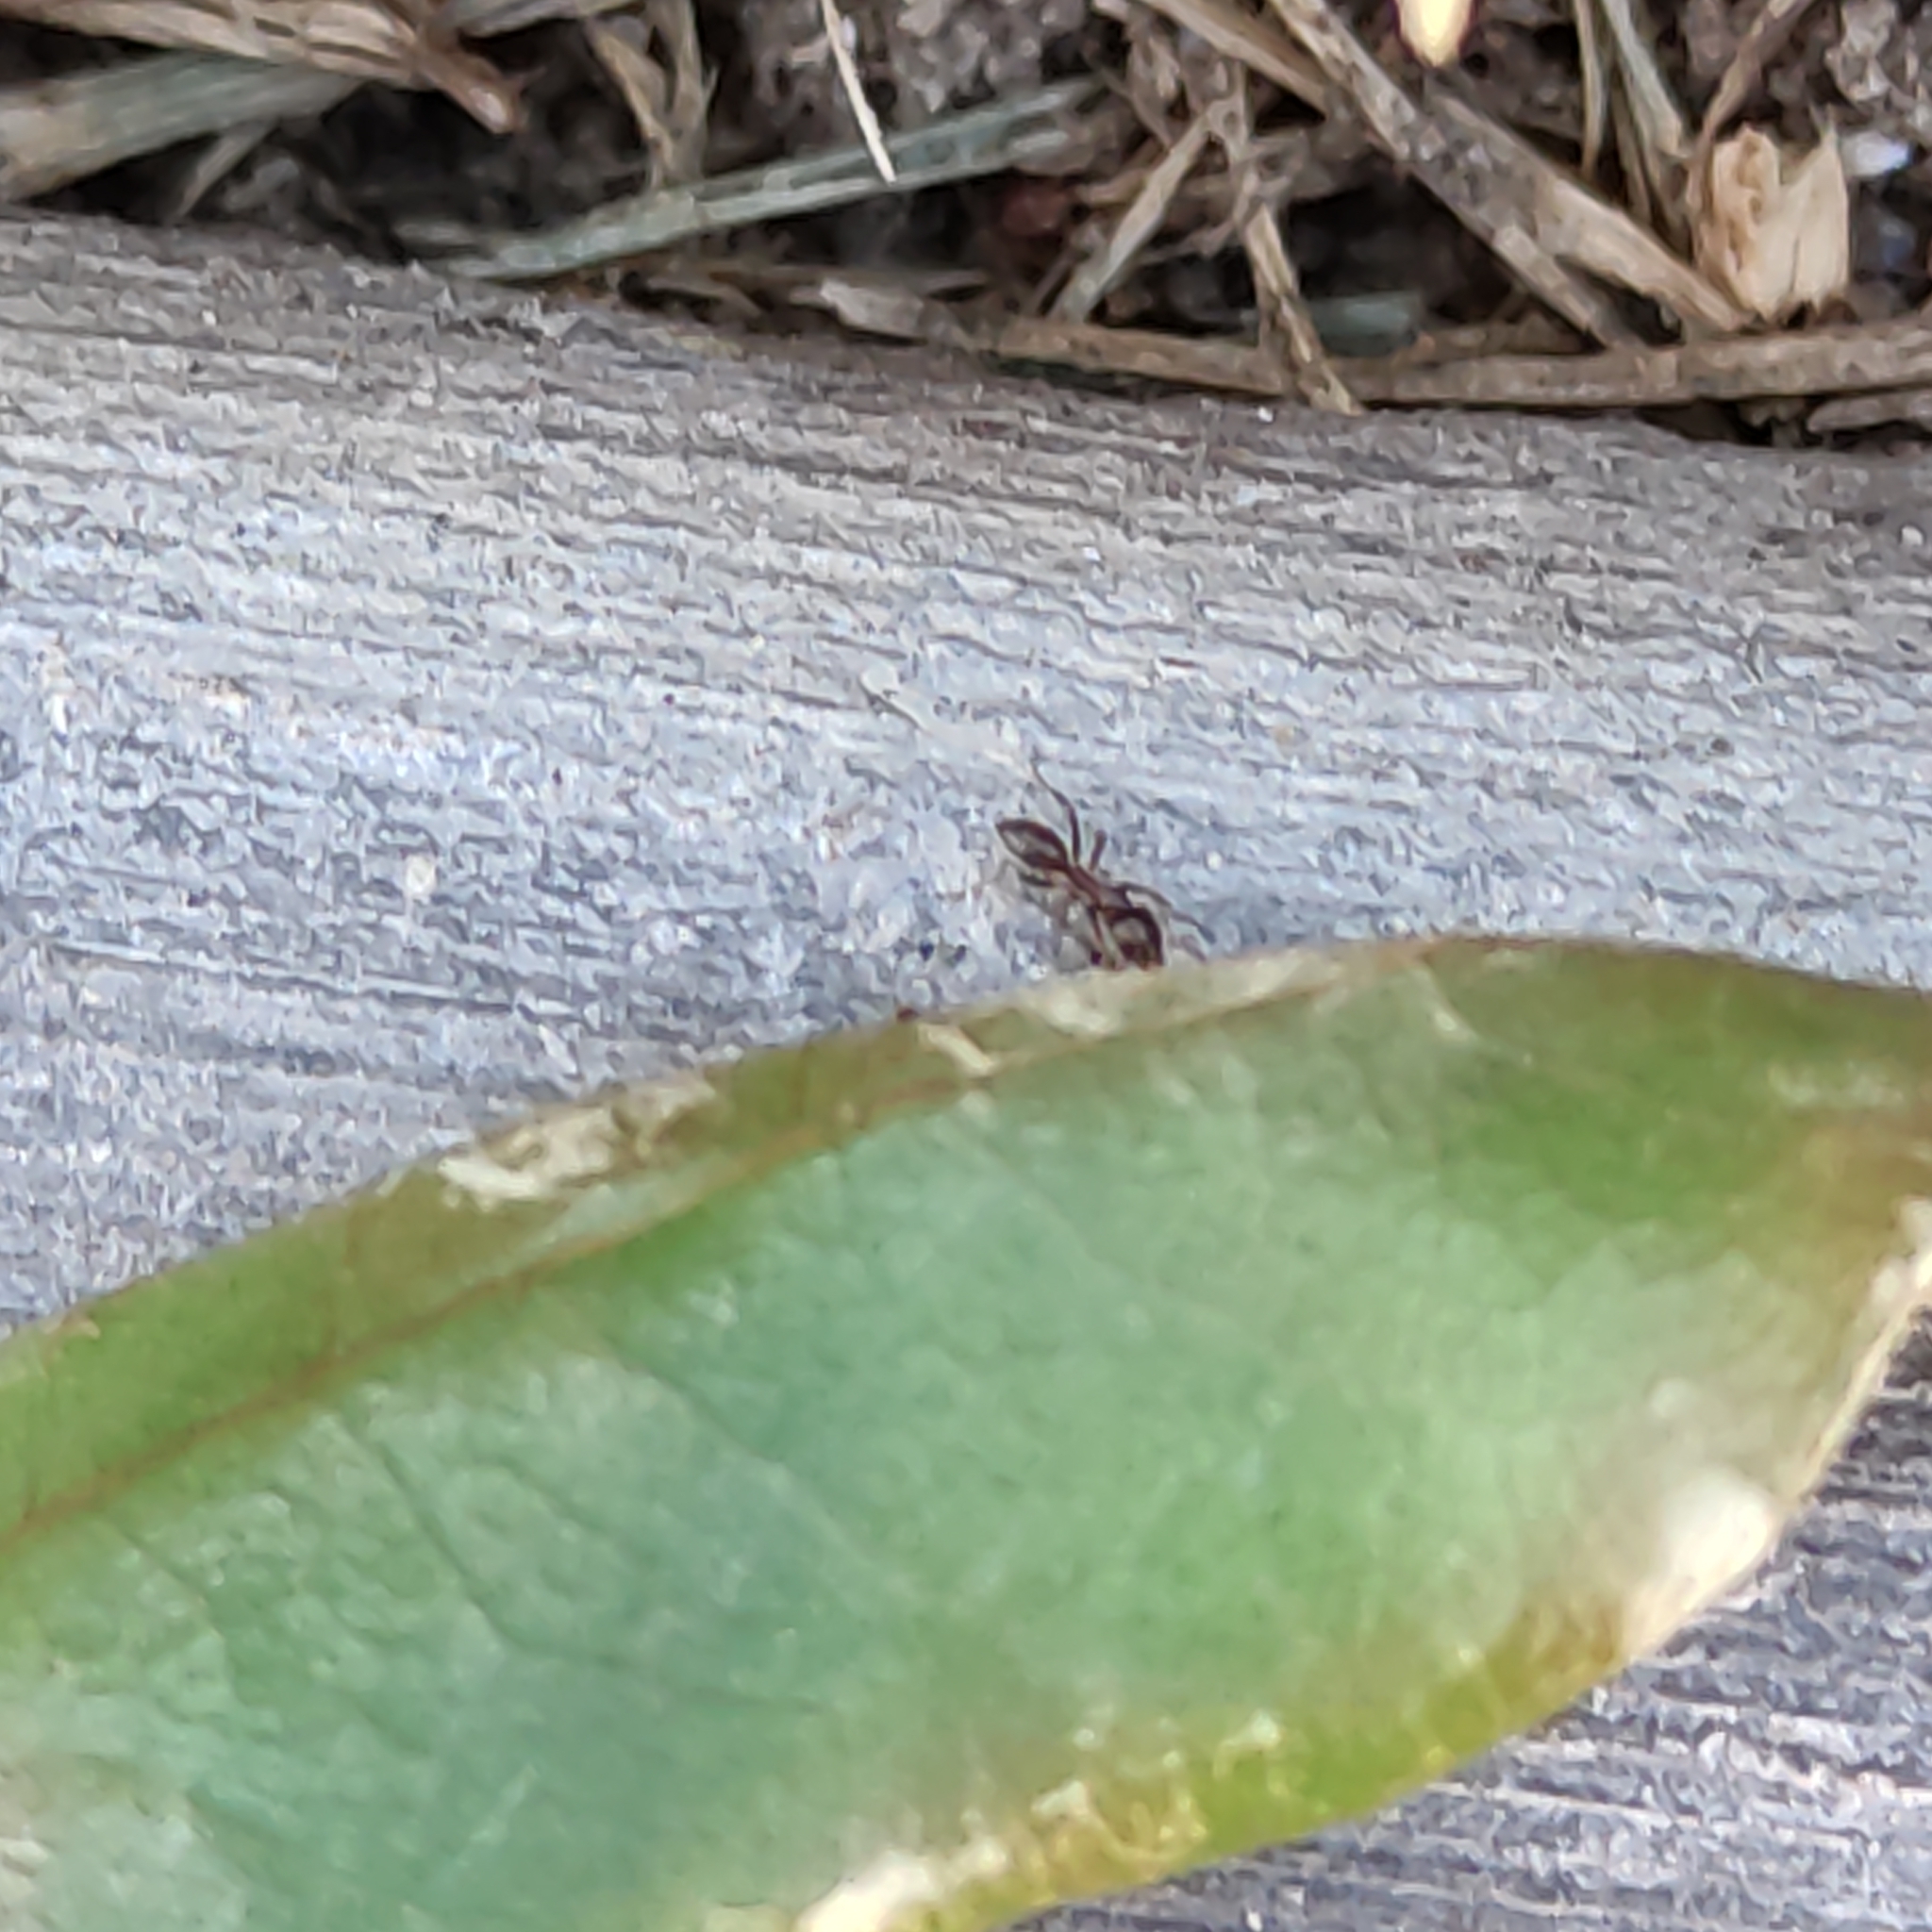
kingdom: Animalia
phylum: Arthropoda
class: Insecta
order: Hymenoptera
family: Formicidae
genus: Linepithema
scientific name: Linepithema humile
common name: Argentine ant
